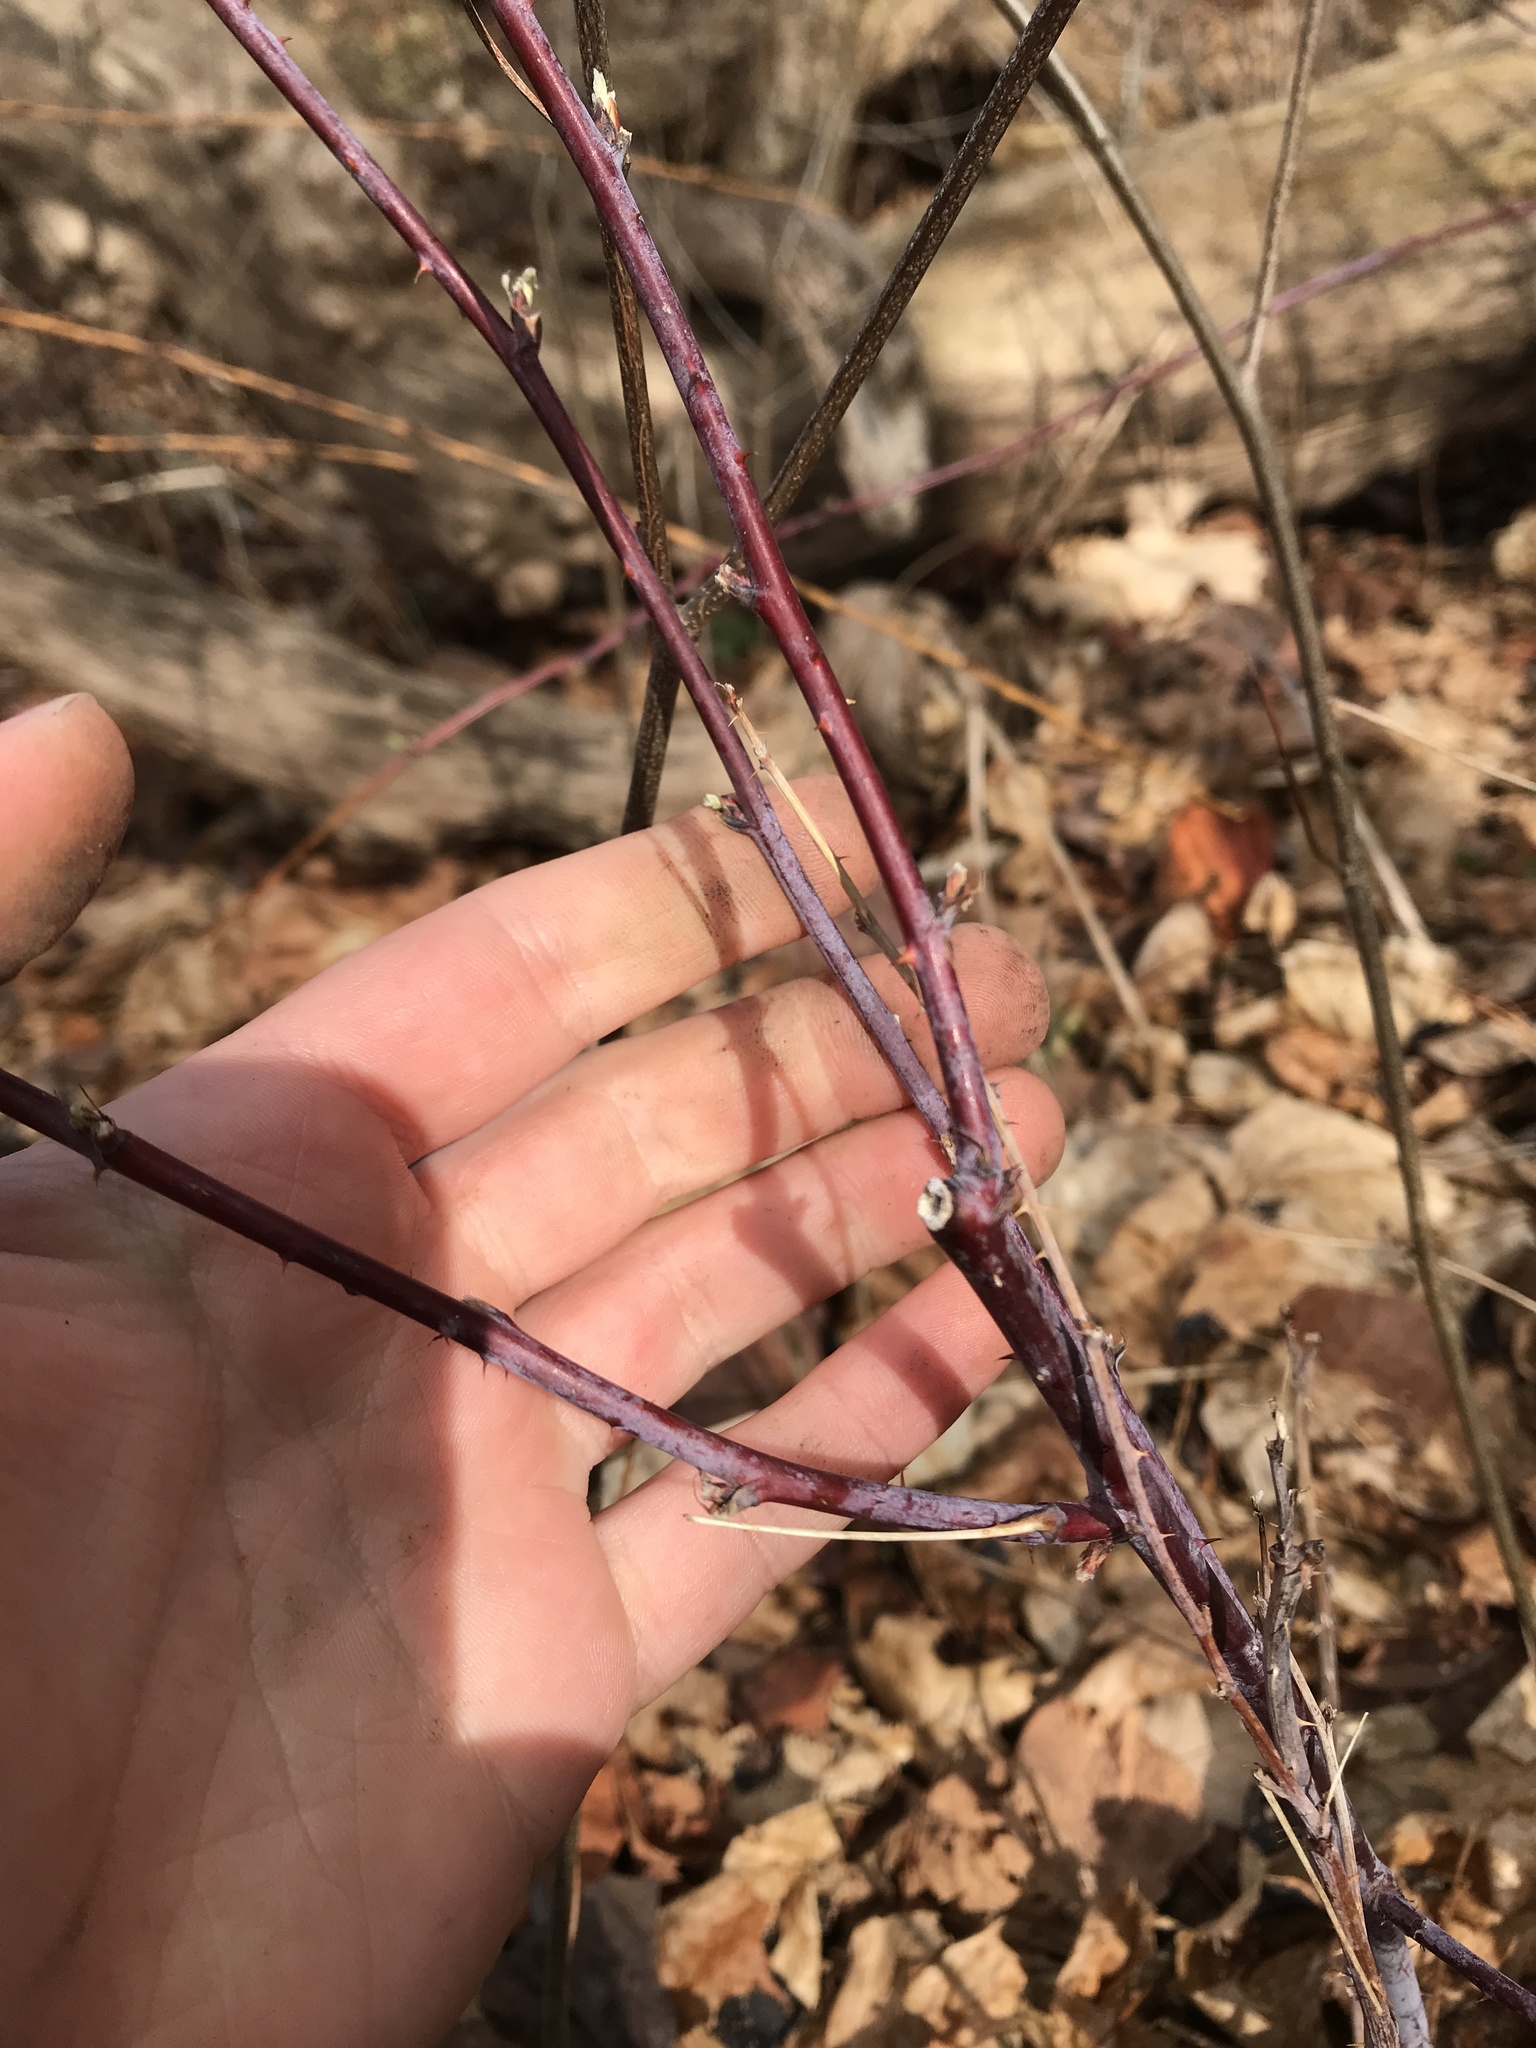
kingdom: Plantae
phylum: Tracheophyta
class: Magnoliopsida
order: Rosales
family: Rosaceae
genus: Rubus
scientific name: Rubus occidentalis
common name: Black raspberry
